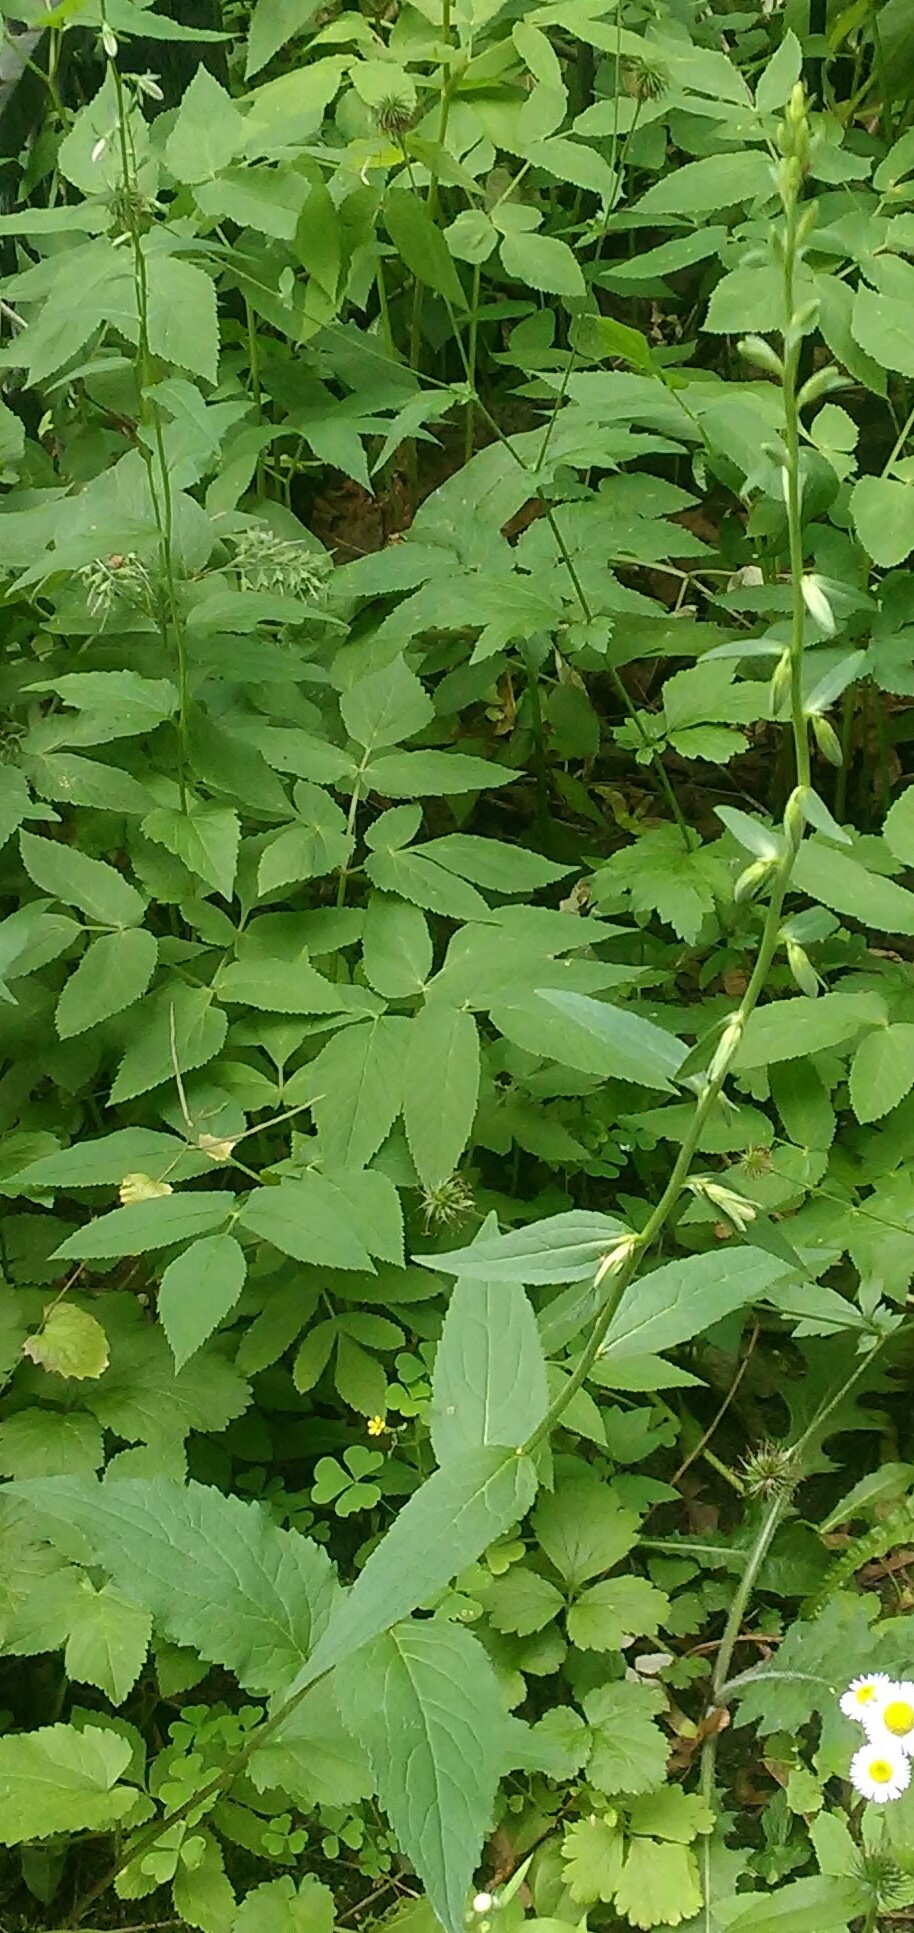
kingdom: Plantae
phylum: Tracheophyta
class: Magnoliopsida
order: Asterales
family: Campanulaceae
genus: Campanula
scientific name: Campanula rapunculoides
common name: Creeping bellflower
